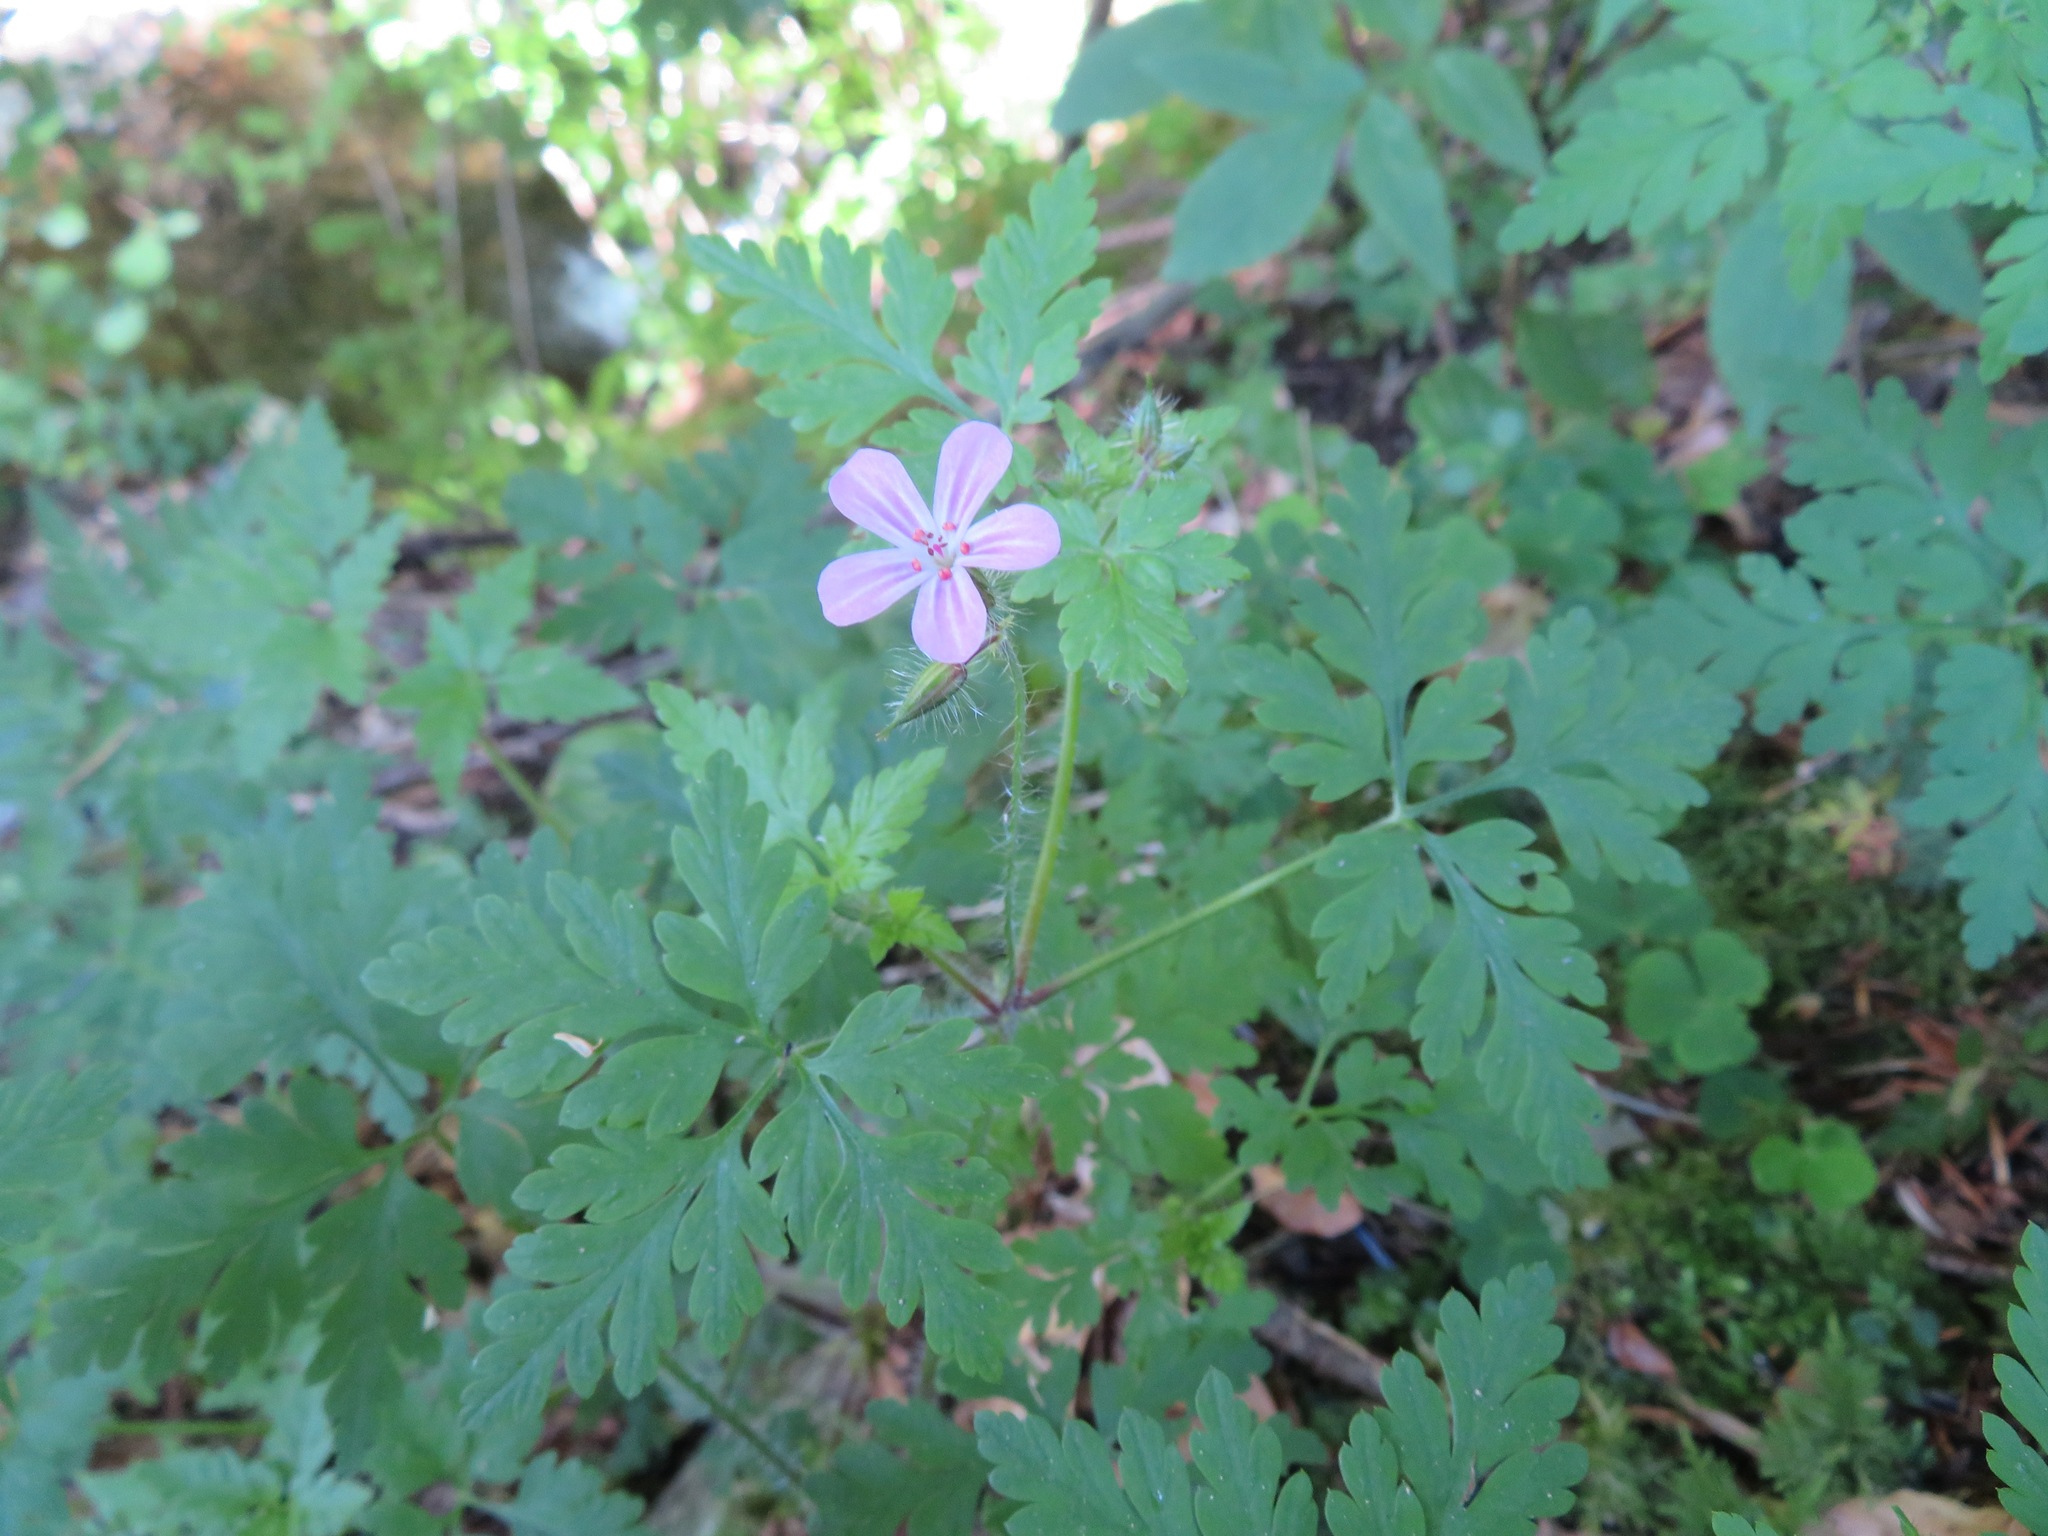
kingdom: Plantae
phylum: Tracheophyta
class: Magnoliopsida
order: Geraniales
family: Geraniaceae
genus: Geranium
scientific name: Geranium robertianum
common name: Herb-robert
